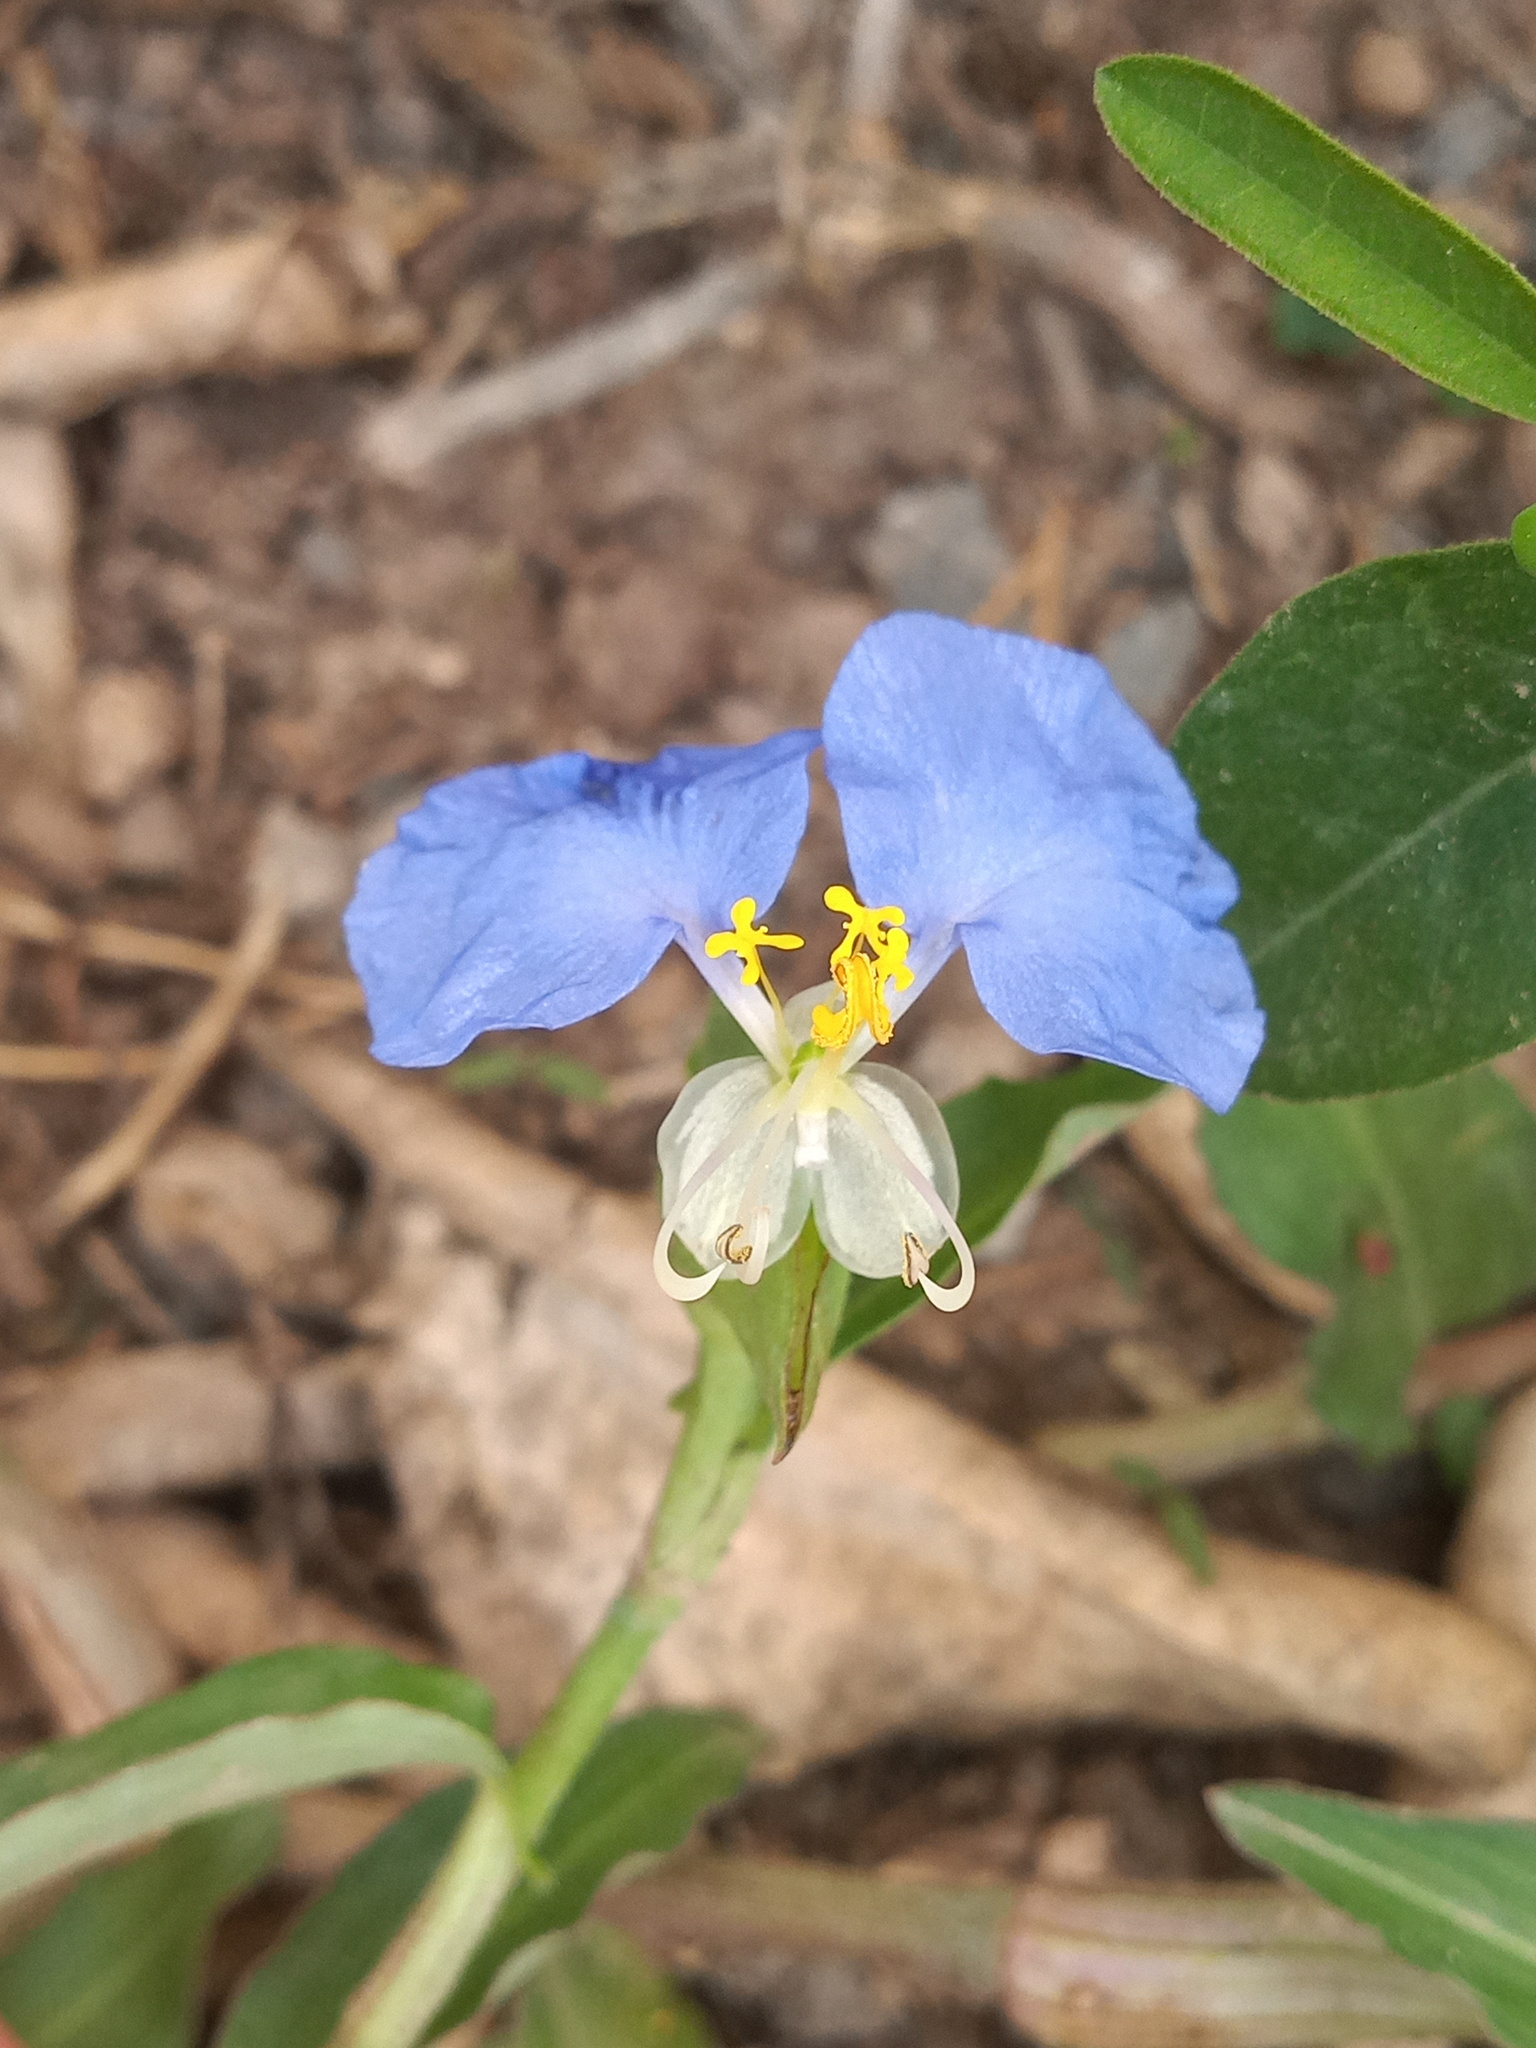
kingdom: Plantae
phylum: Tracheophyta
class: Liliopsida
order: Commelinales
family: Commelinaceae
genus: Commelina
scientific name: Commelina erecta
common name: Blousel blommetjie
